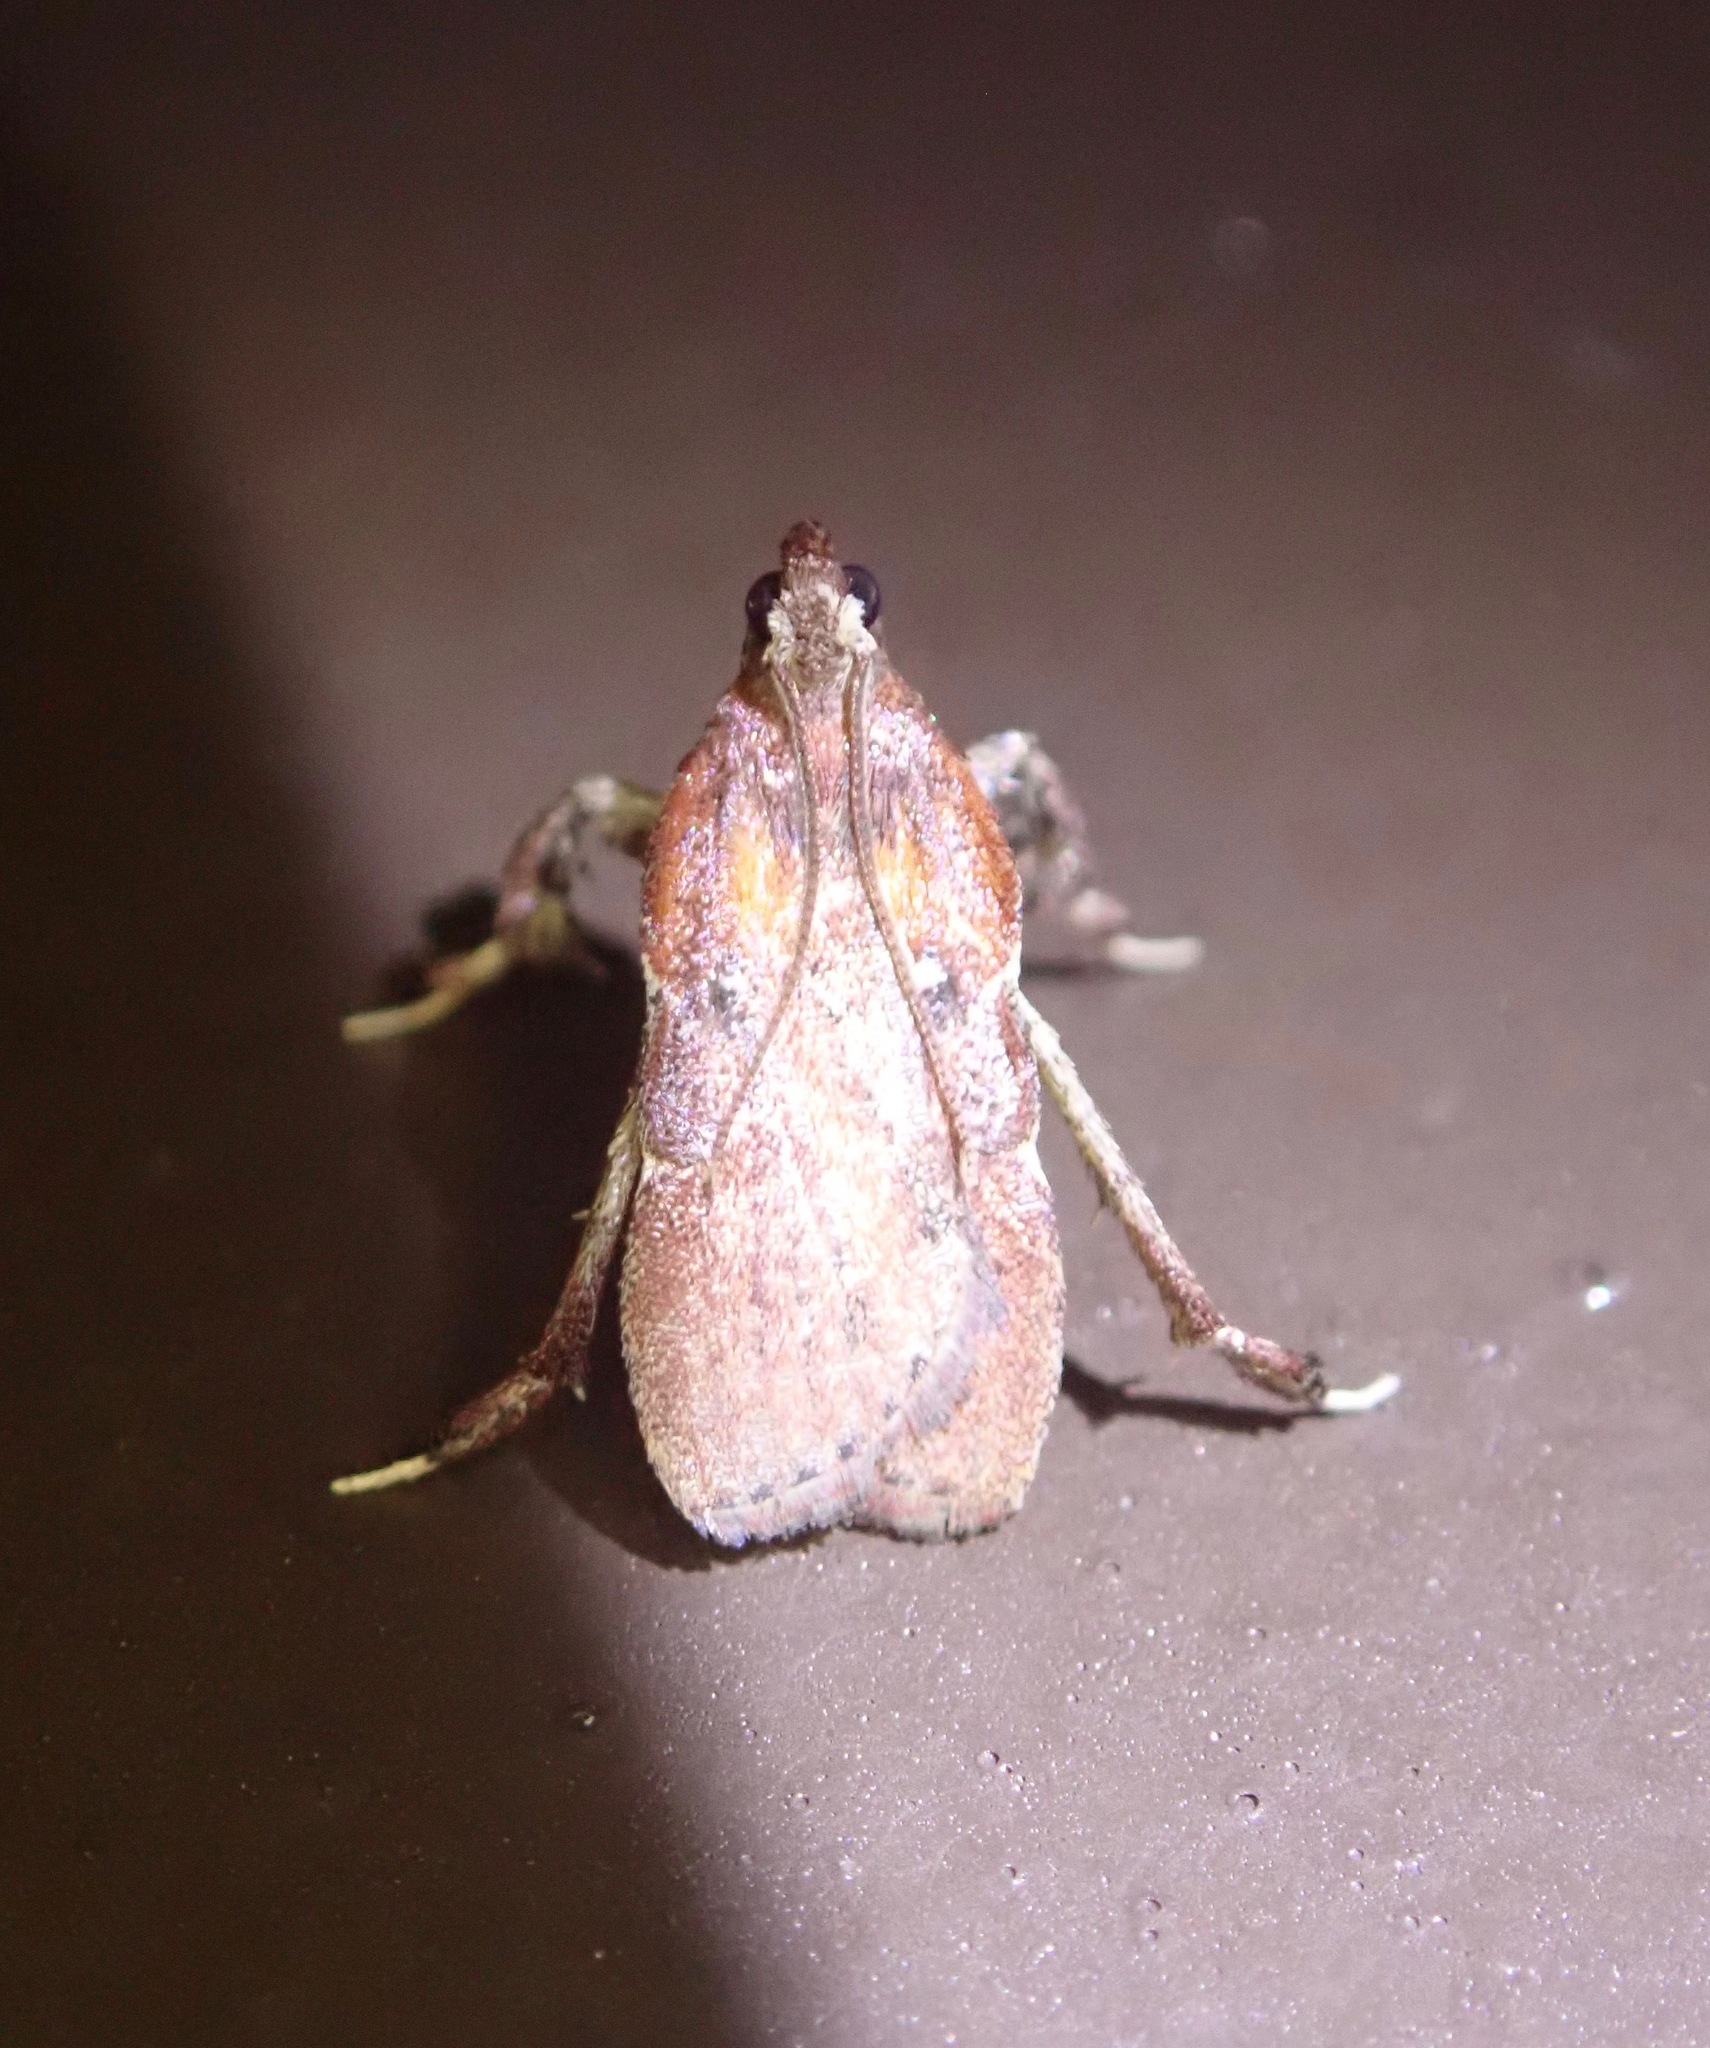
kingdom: Animalia
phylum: Arthropoda
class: Insecta
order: Lepidoptera
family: Pyralidae
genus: Galasa
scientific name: Galasa nigrinodis
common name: Boxwood leaftier moth
